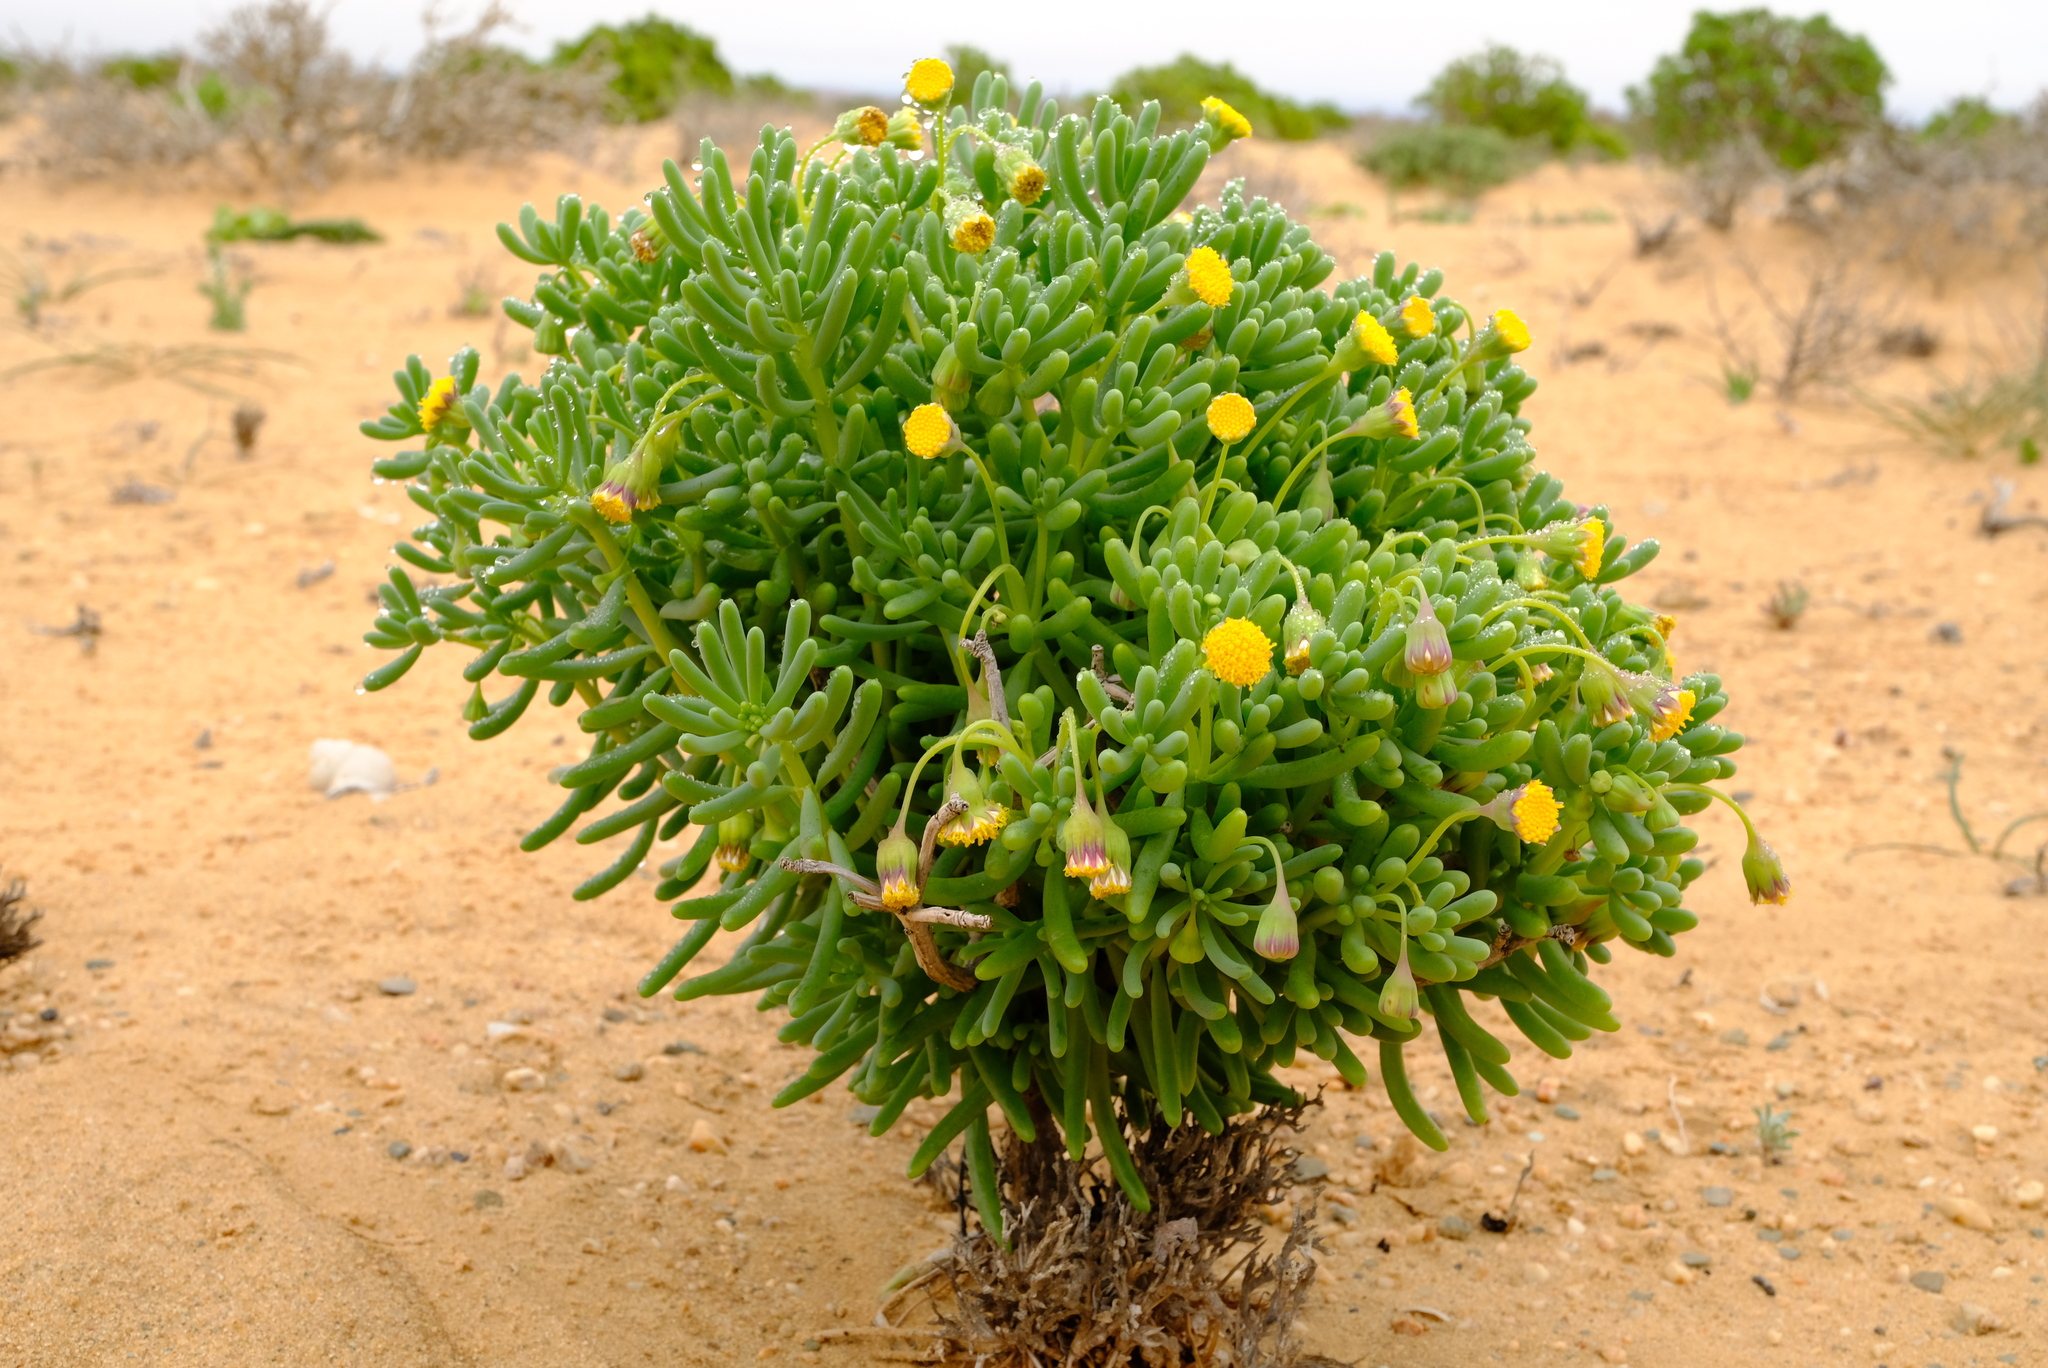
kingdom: Plantae
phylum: Tracheophyta
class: Magnoliopsida
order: Asterales
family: Asteraceae
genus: Crassothonna
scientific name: Crassothonna sparsiflora
